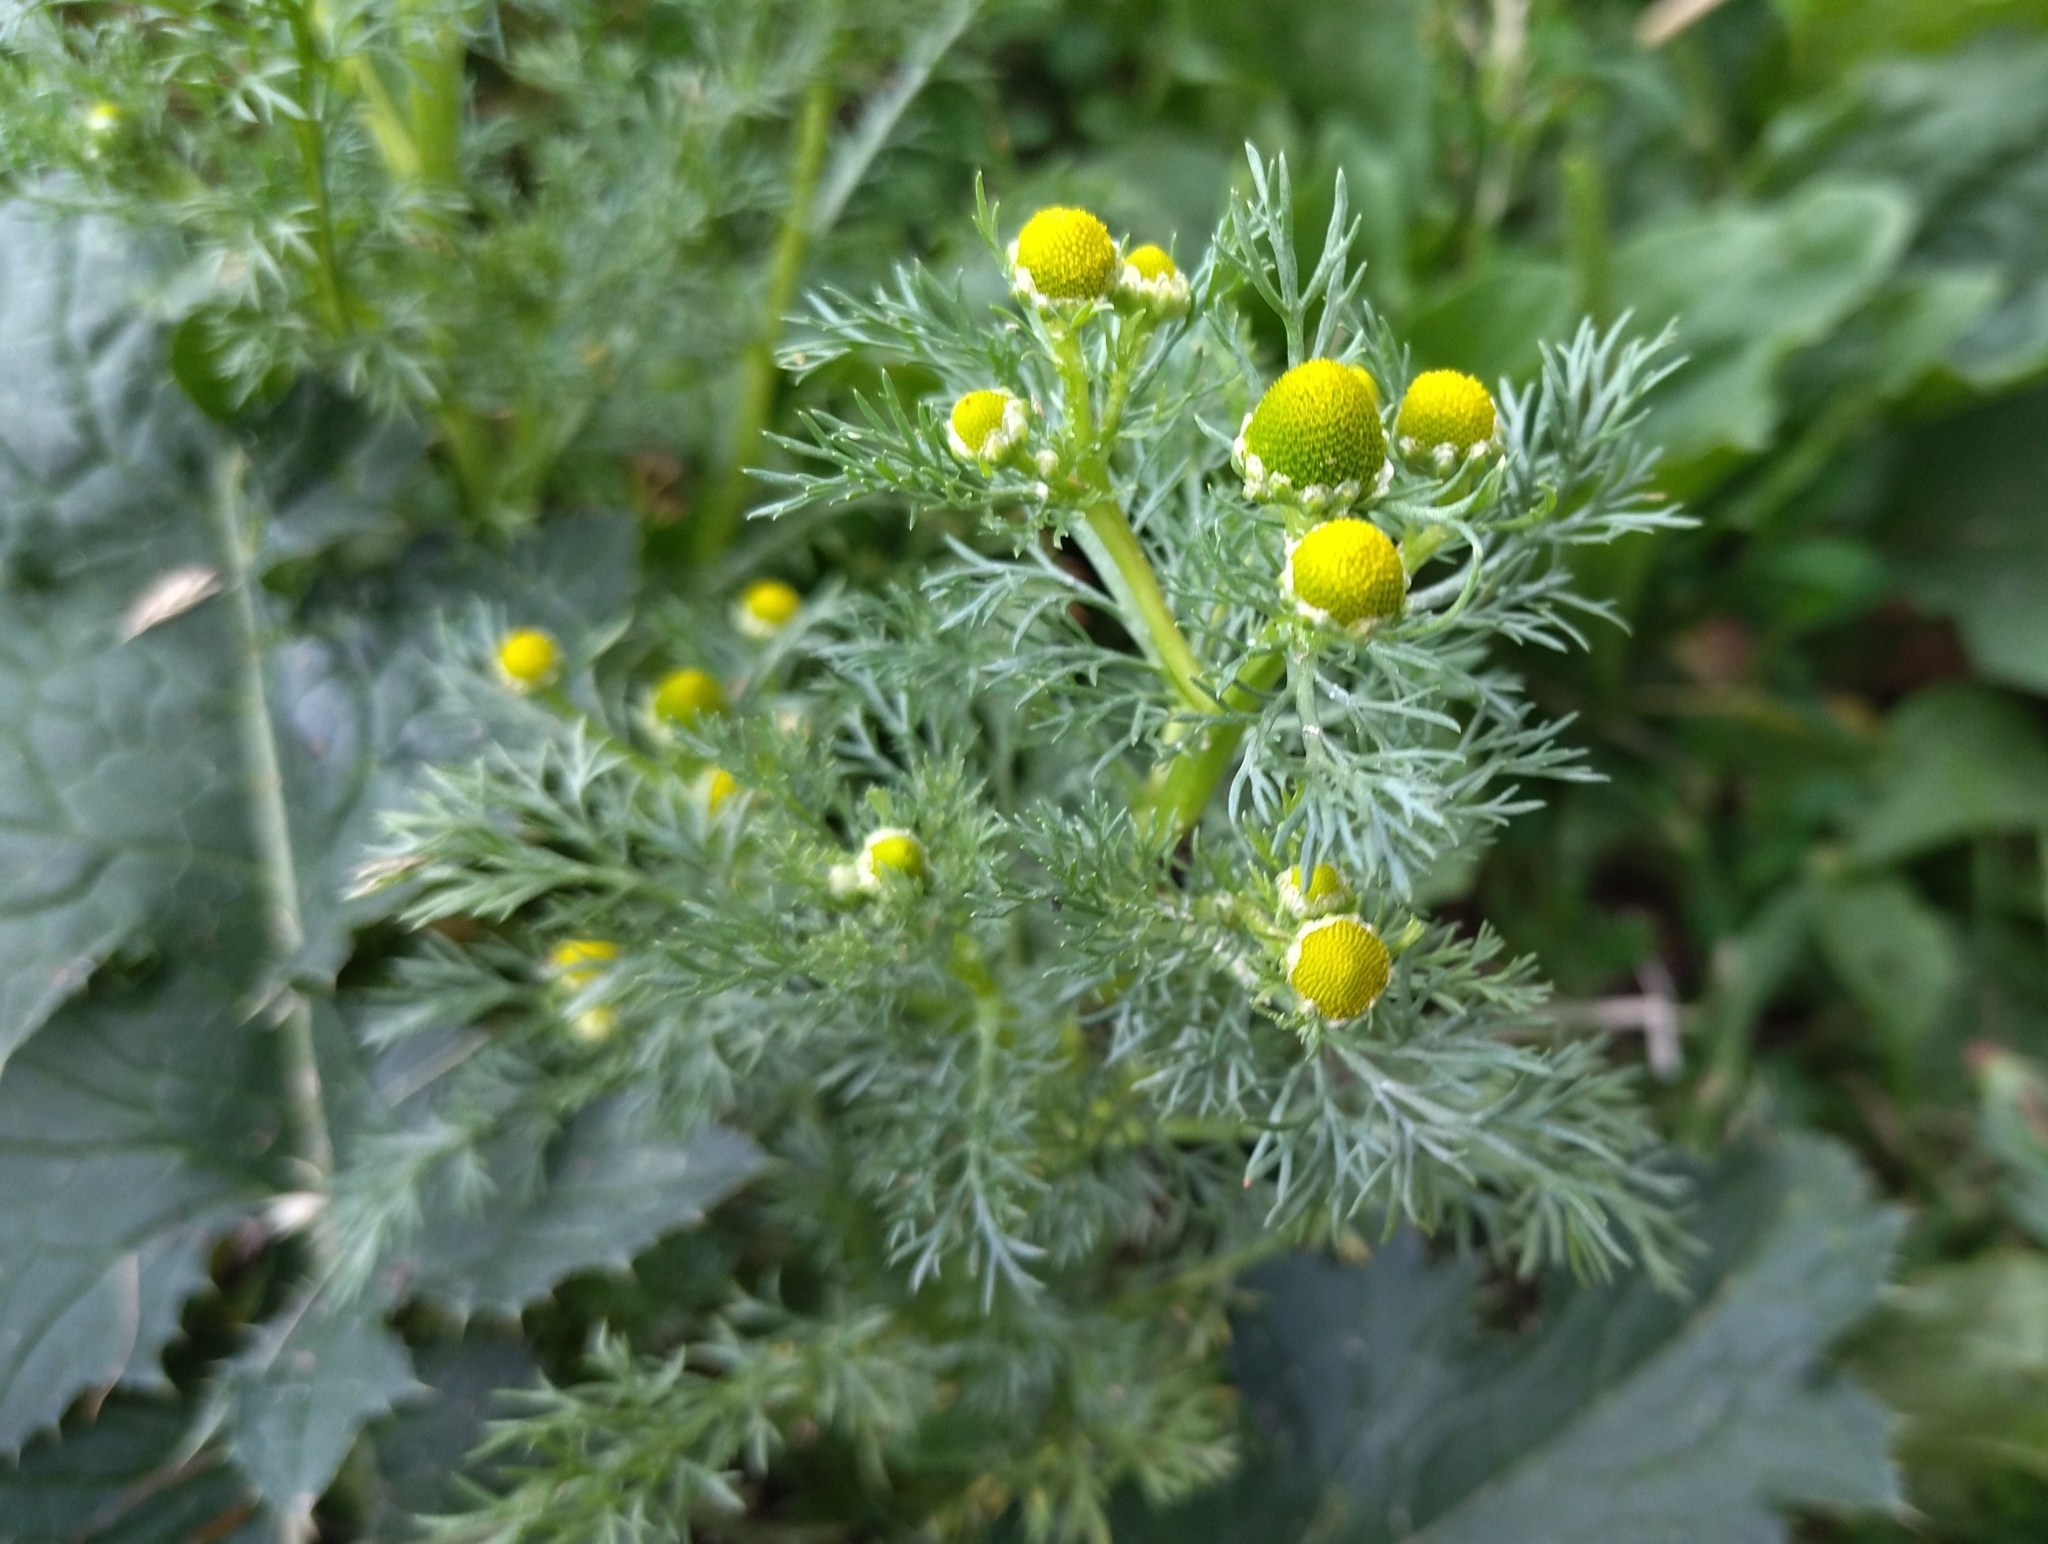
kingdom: Plantae
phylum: Tracheophyta
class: Magnoliopsida
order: Asterales
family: Asteraceae
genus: Matricaria
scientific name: Matricaria discoidea
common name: Disc mayweed
